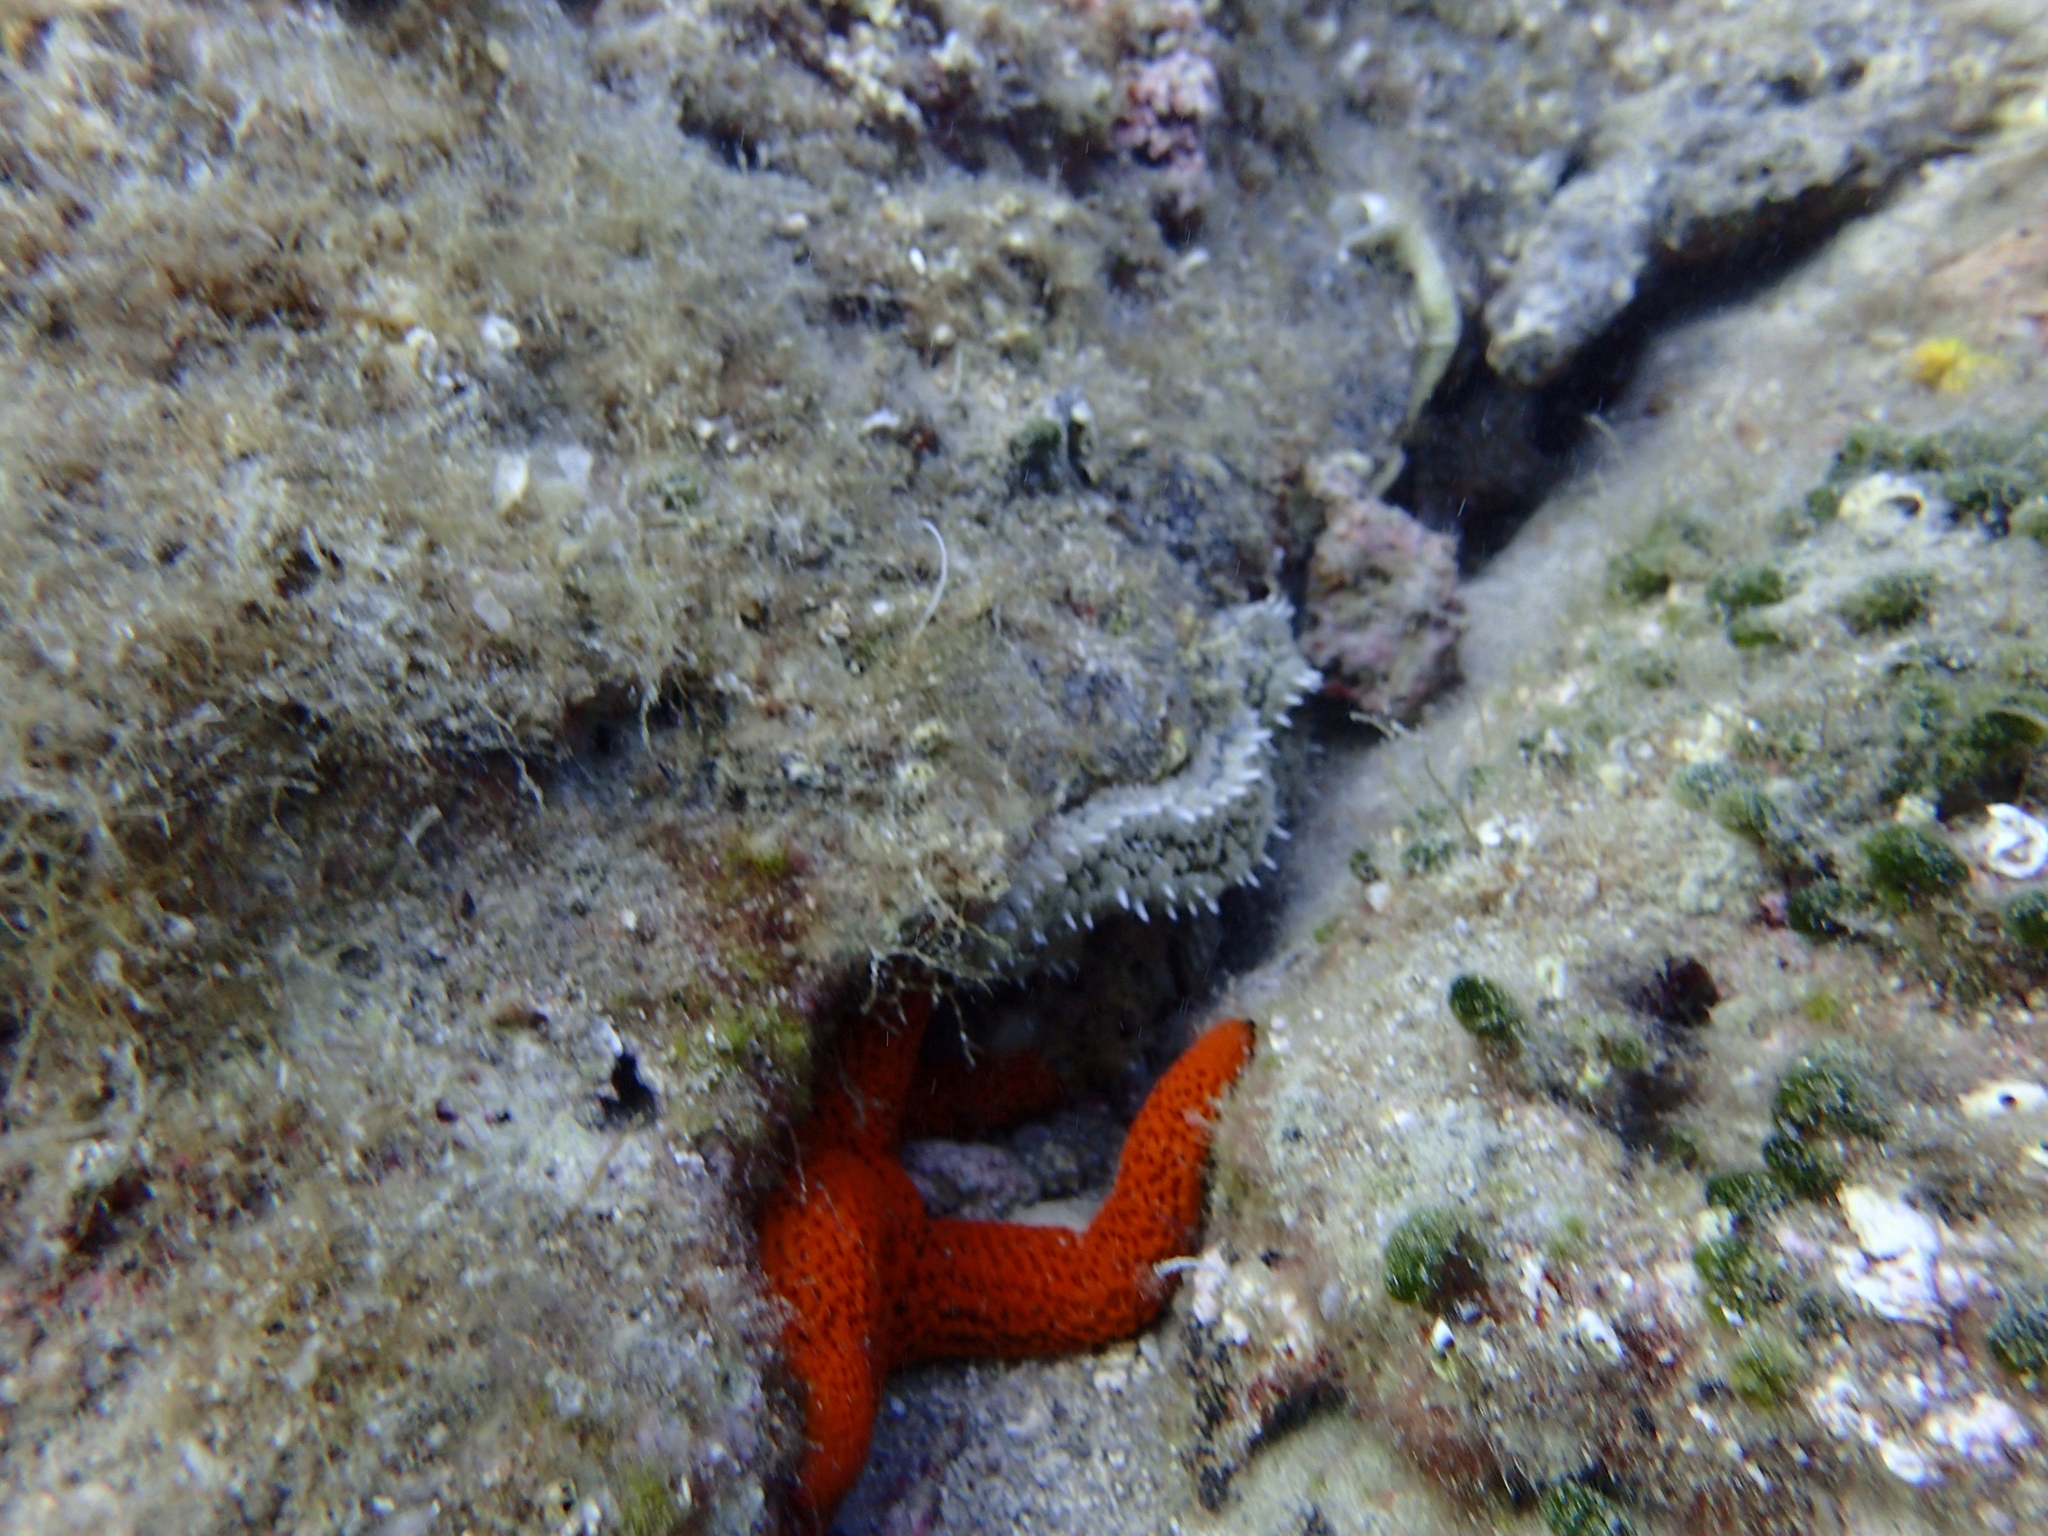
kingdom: Animalia
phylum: Echinodermata
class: Asteroidea
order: Forcipulatida
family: Asteriidae
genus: Marthasterias
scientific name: Marthasterias glacialis
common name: Spiny starfish
